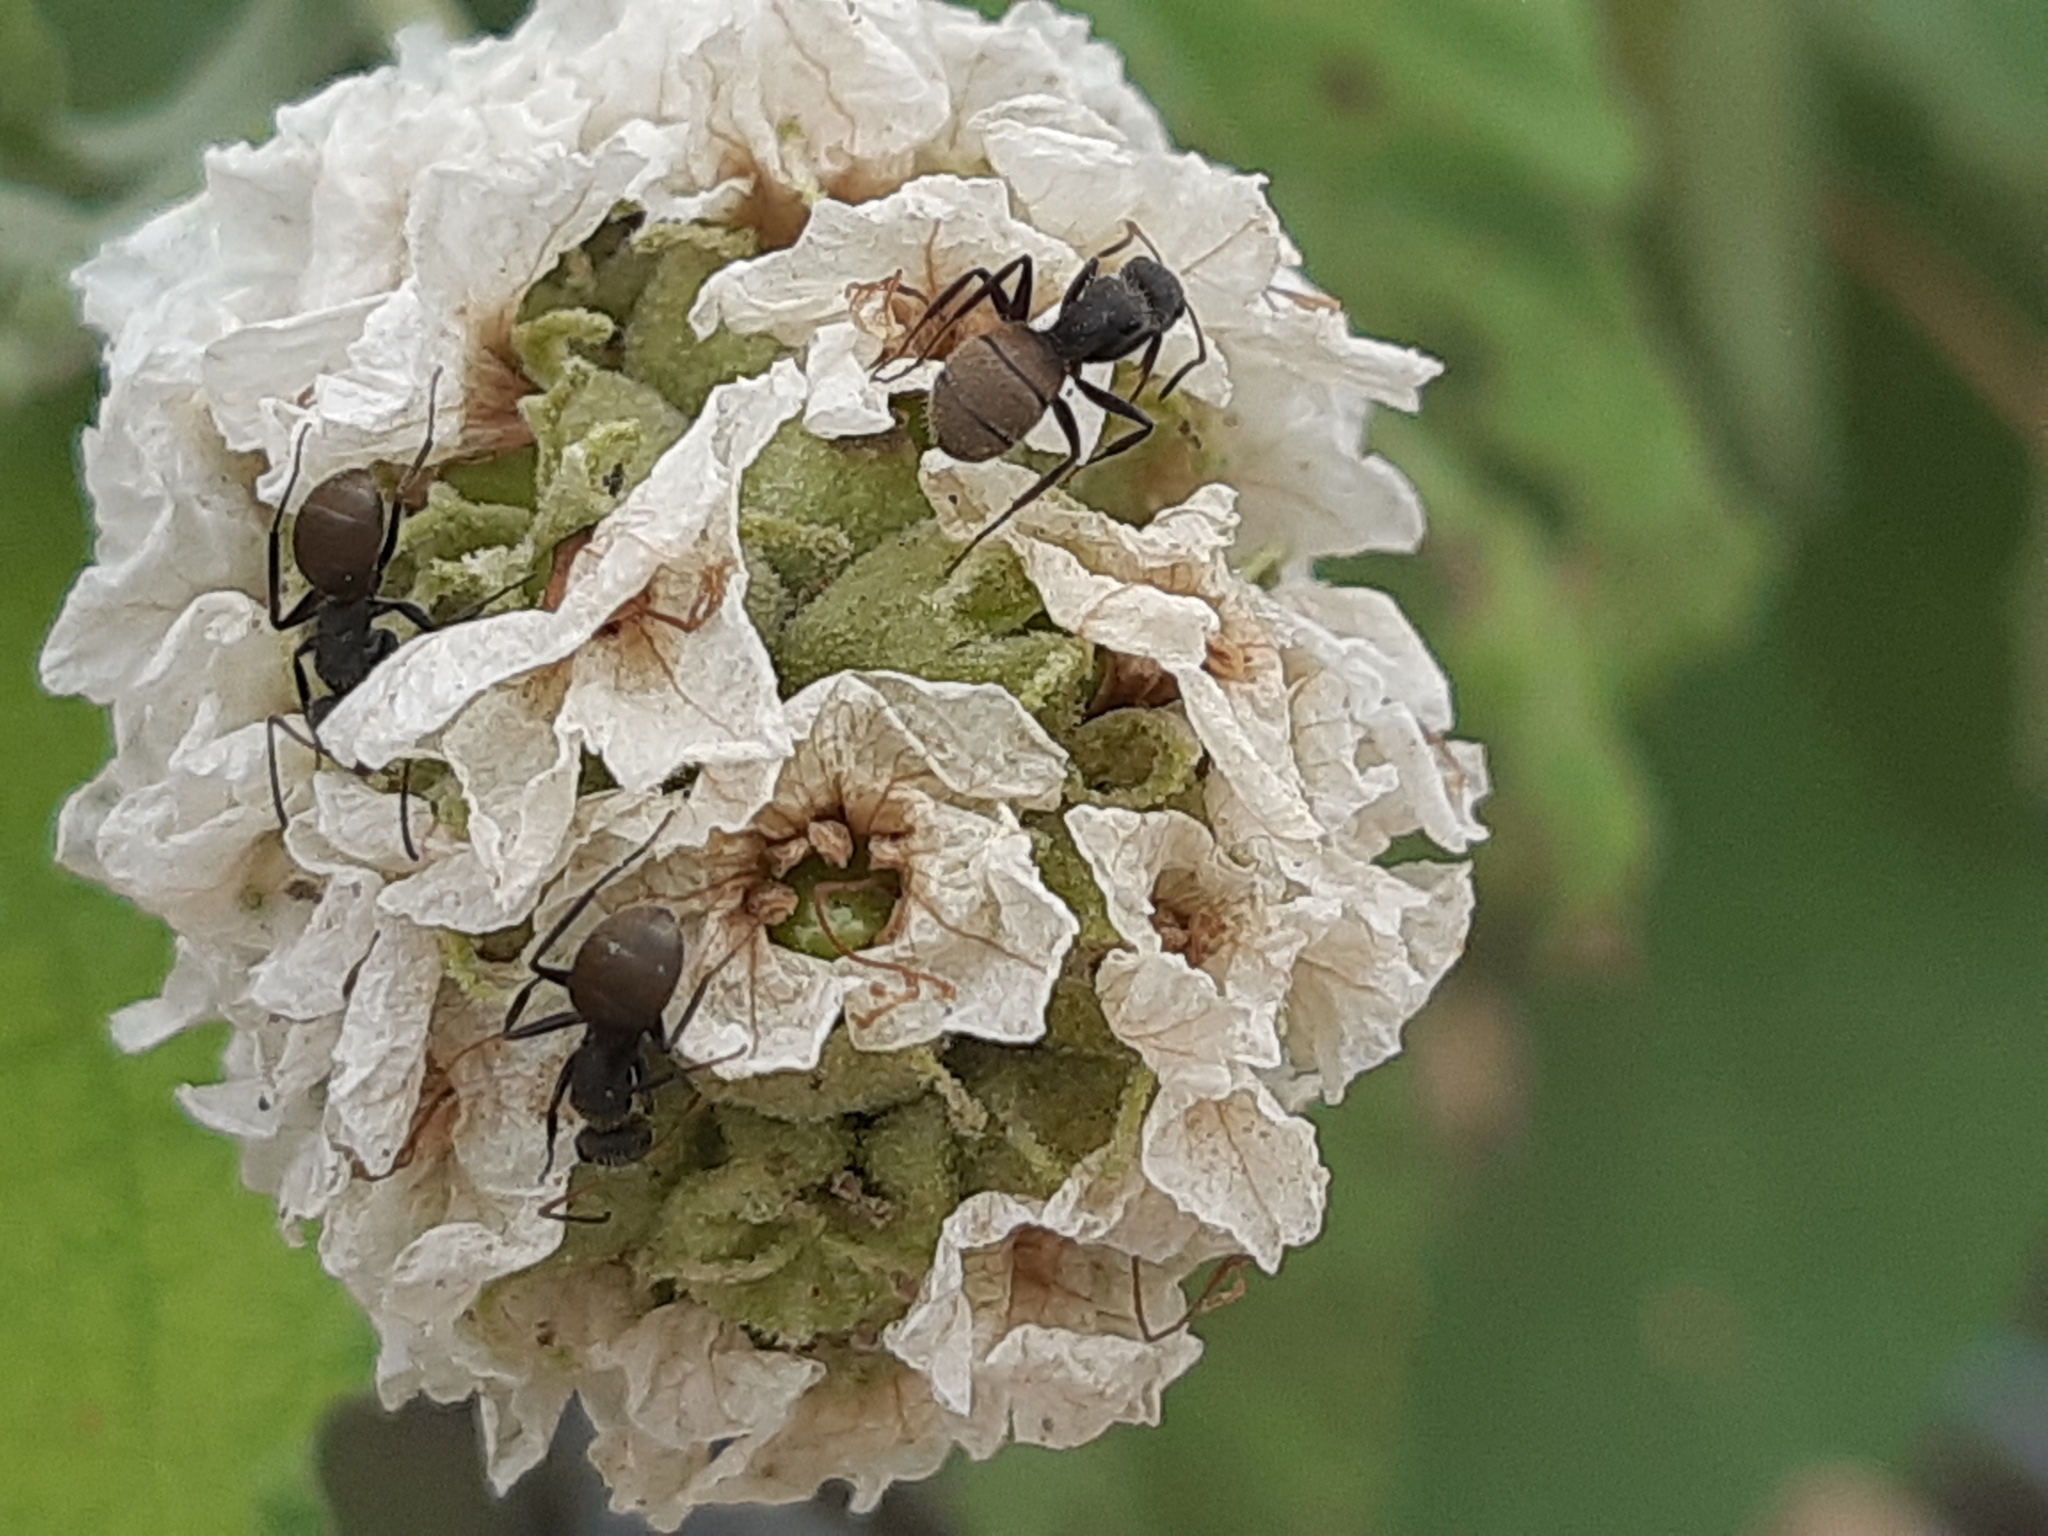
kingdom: Animalia
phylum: Arthropoda
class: Insecta
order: Hymenoptera
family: Formicidae
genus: Camponotus
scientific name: Camponotus mus
